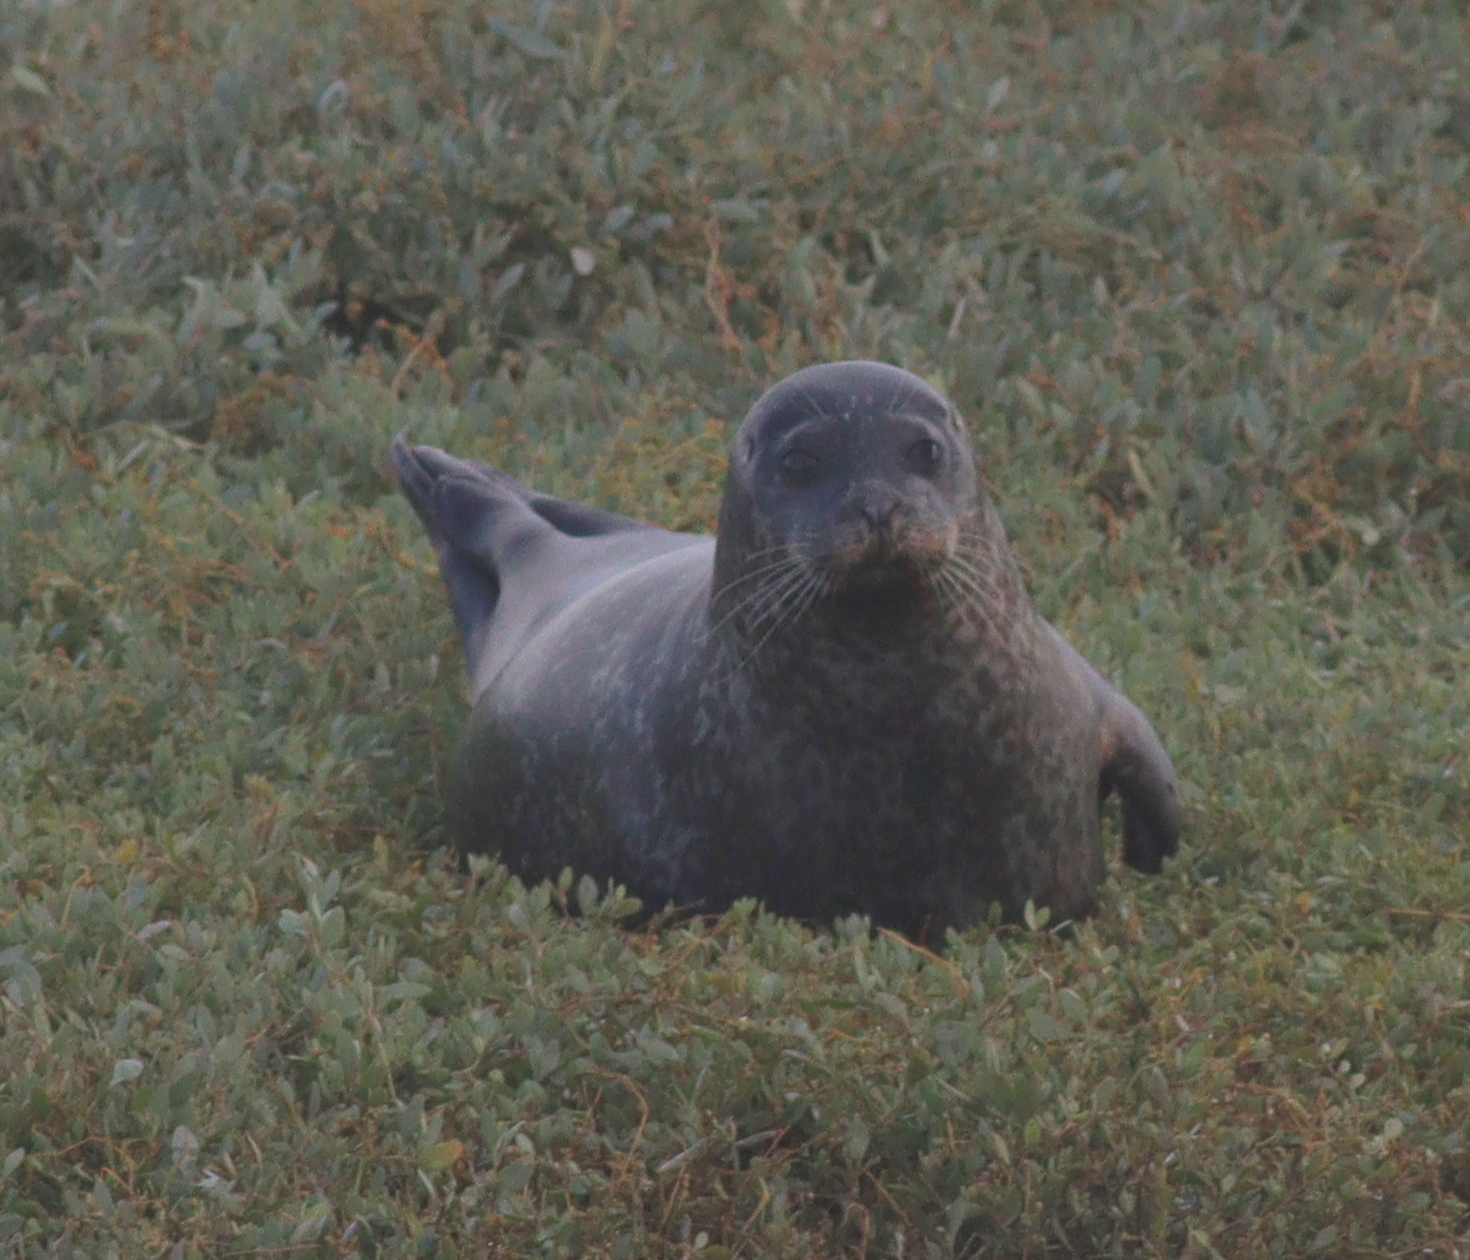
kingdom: Animalia
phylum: Chordata
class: Mammalia
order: Carnivora
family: Phocidae
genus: Phoca
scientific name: Phoca vitulina
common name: Harbor seal
